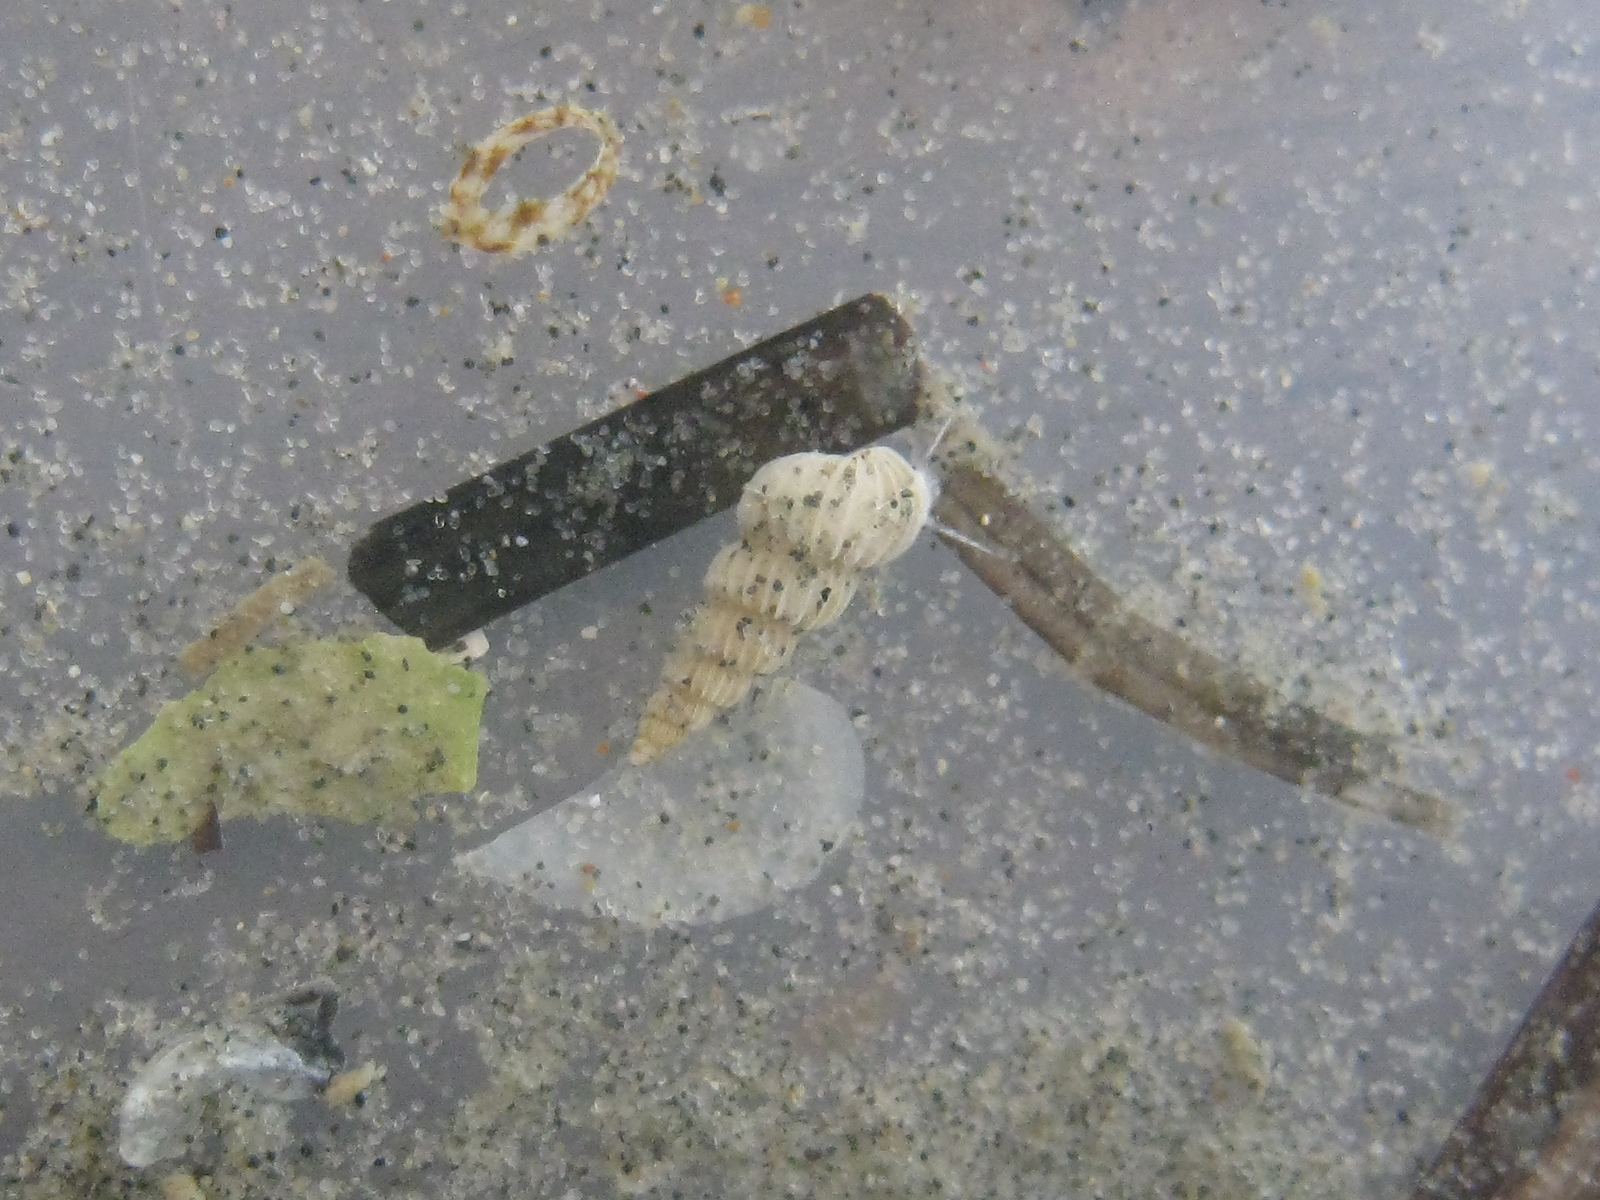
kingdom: Animalia
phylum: Mollusca
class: Gastropoda
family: Epitoniidae
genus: Epitonium
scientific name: Epitonium jukesianum
